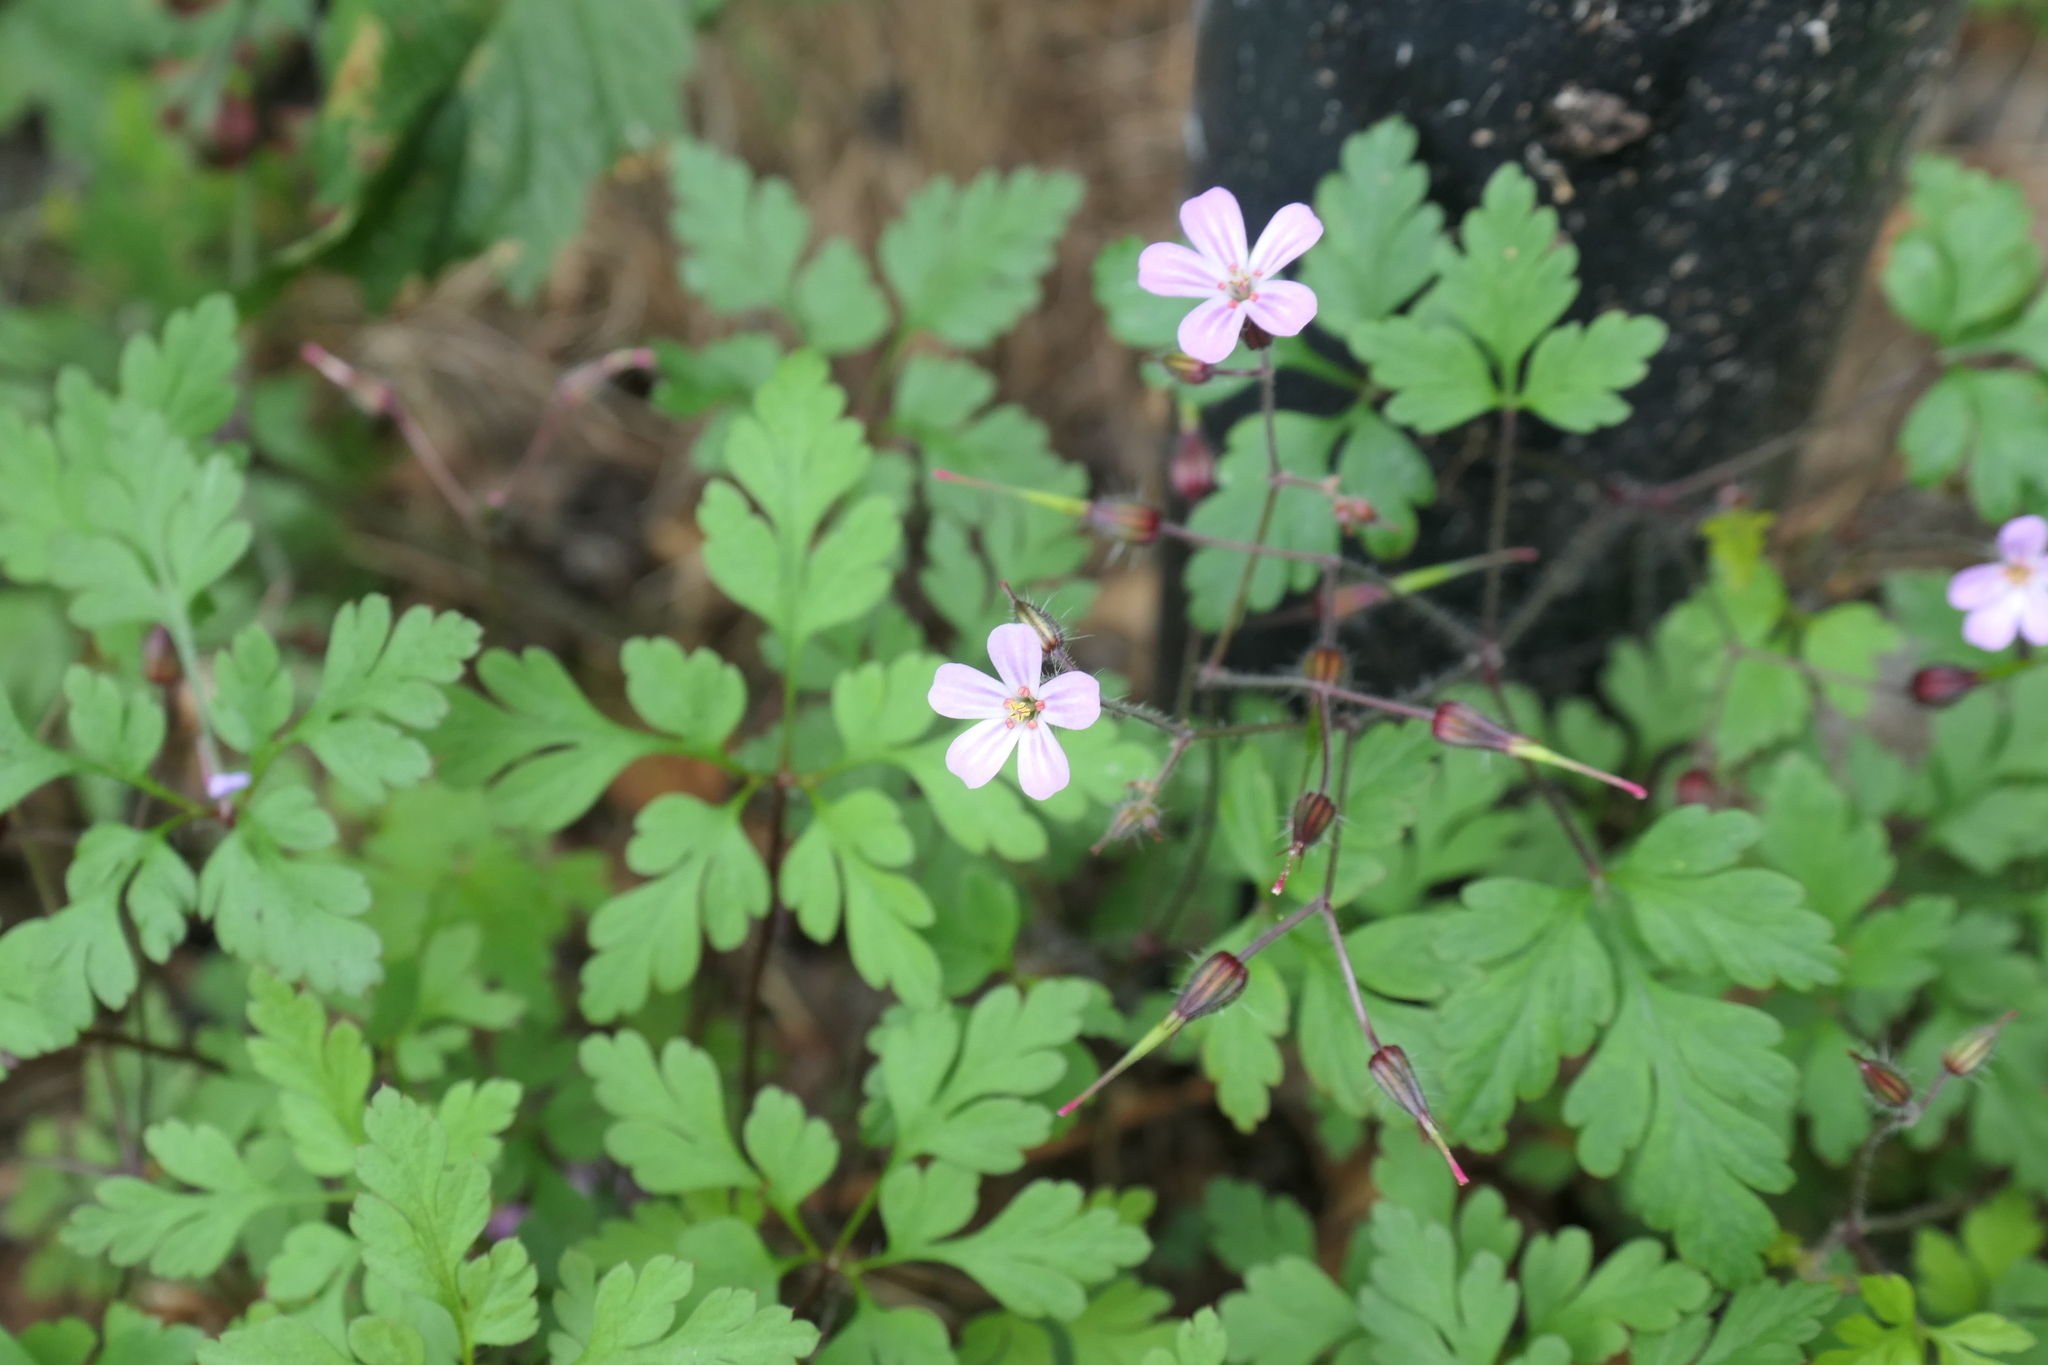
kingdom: Plantae
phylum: Tracheophyta
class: Magnoliopsida
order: Geraniales
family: Geraniaceae
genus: Geranium
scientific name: Geranium robertianum
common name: Herb-robert
